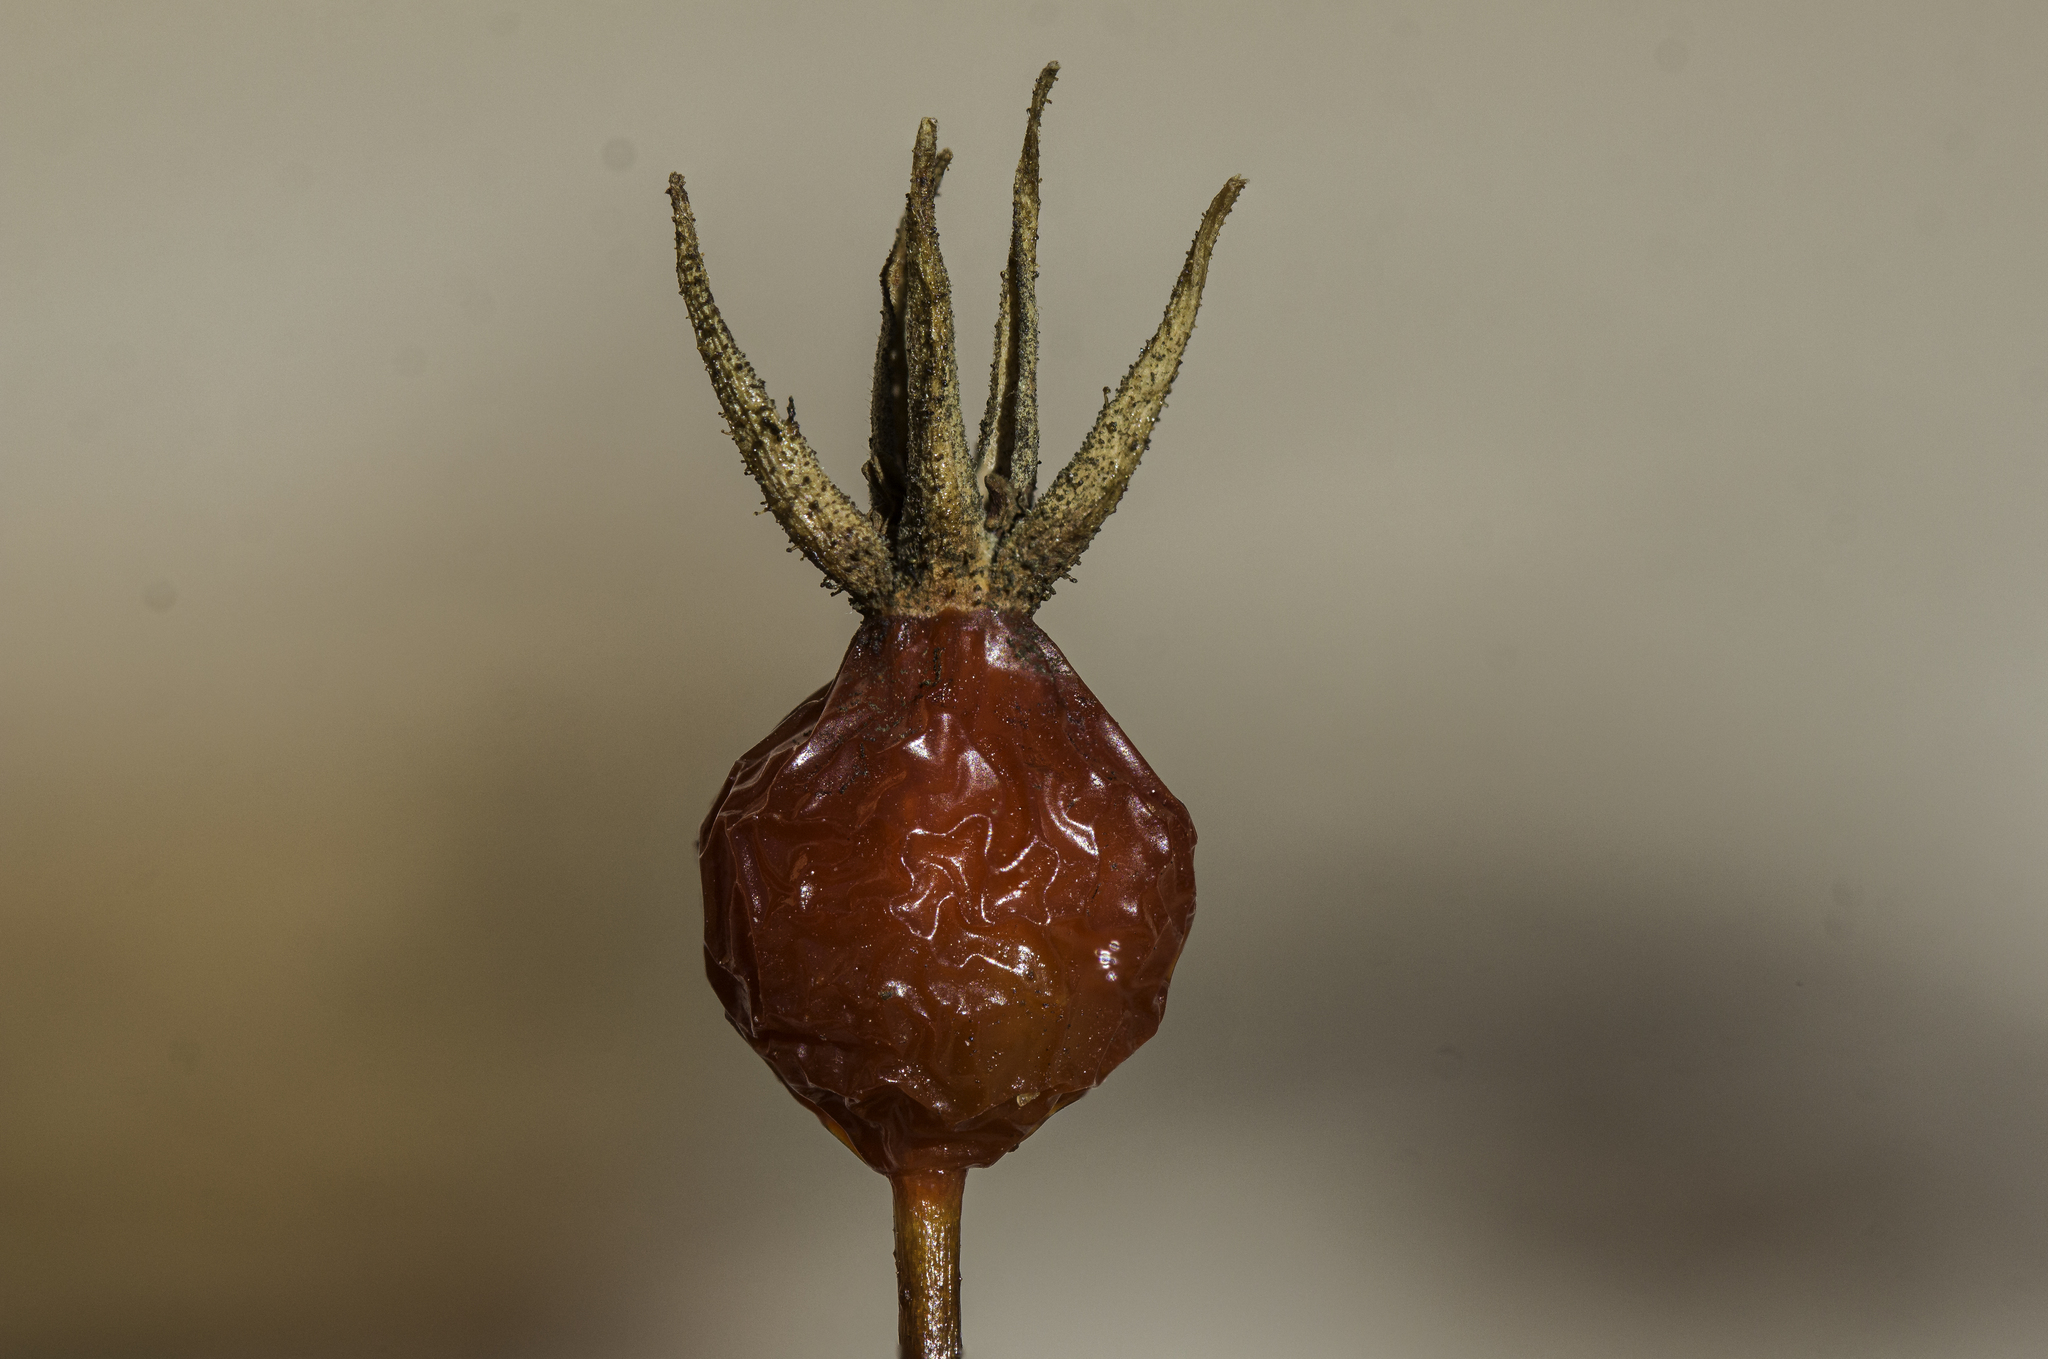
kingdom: Plantae
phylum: Tracheophyta
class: Magnoliopsida
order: Rosales
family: Rosaceae
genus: Rosa
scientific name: Rosa woodsii
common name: Woods's rose
